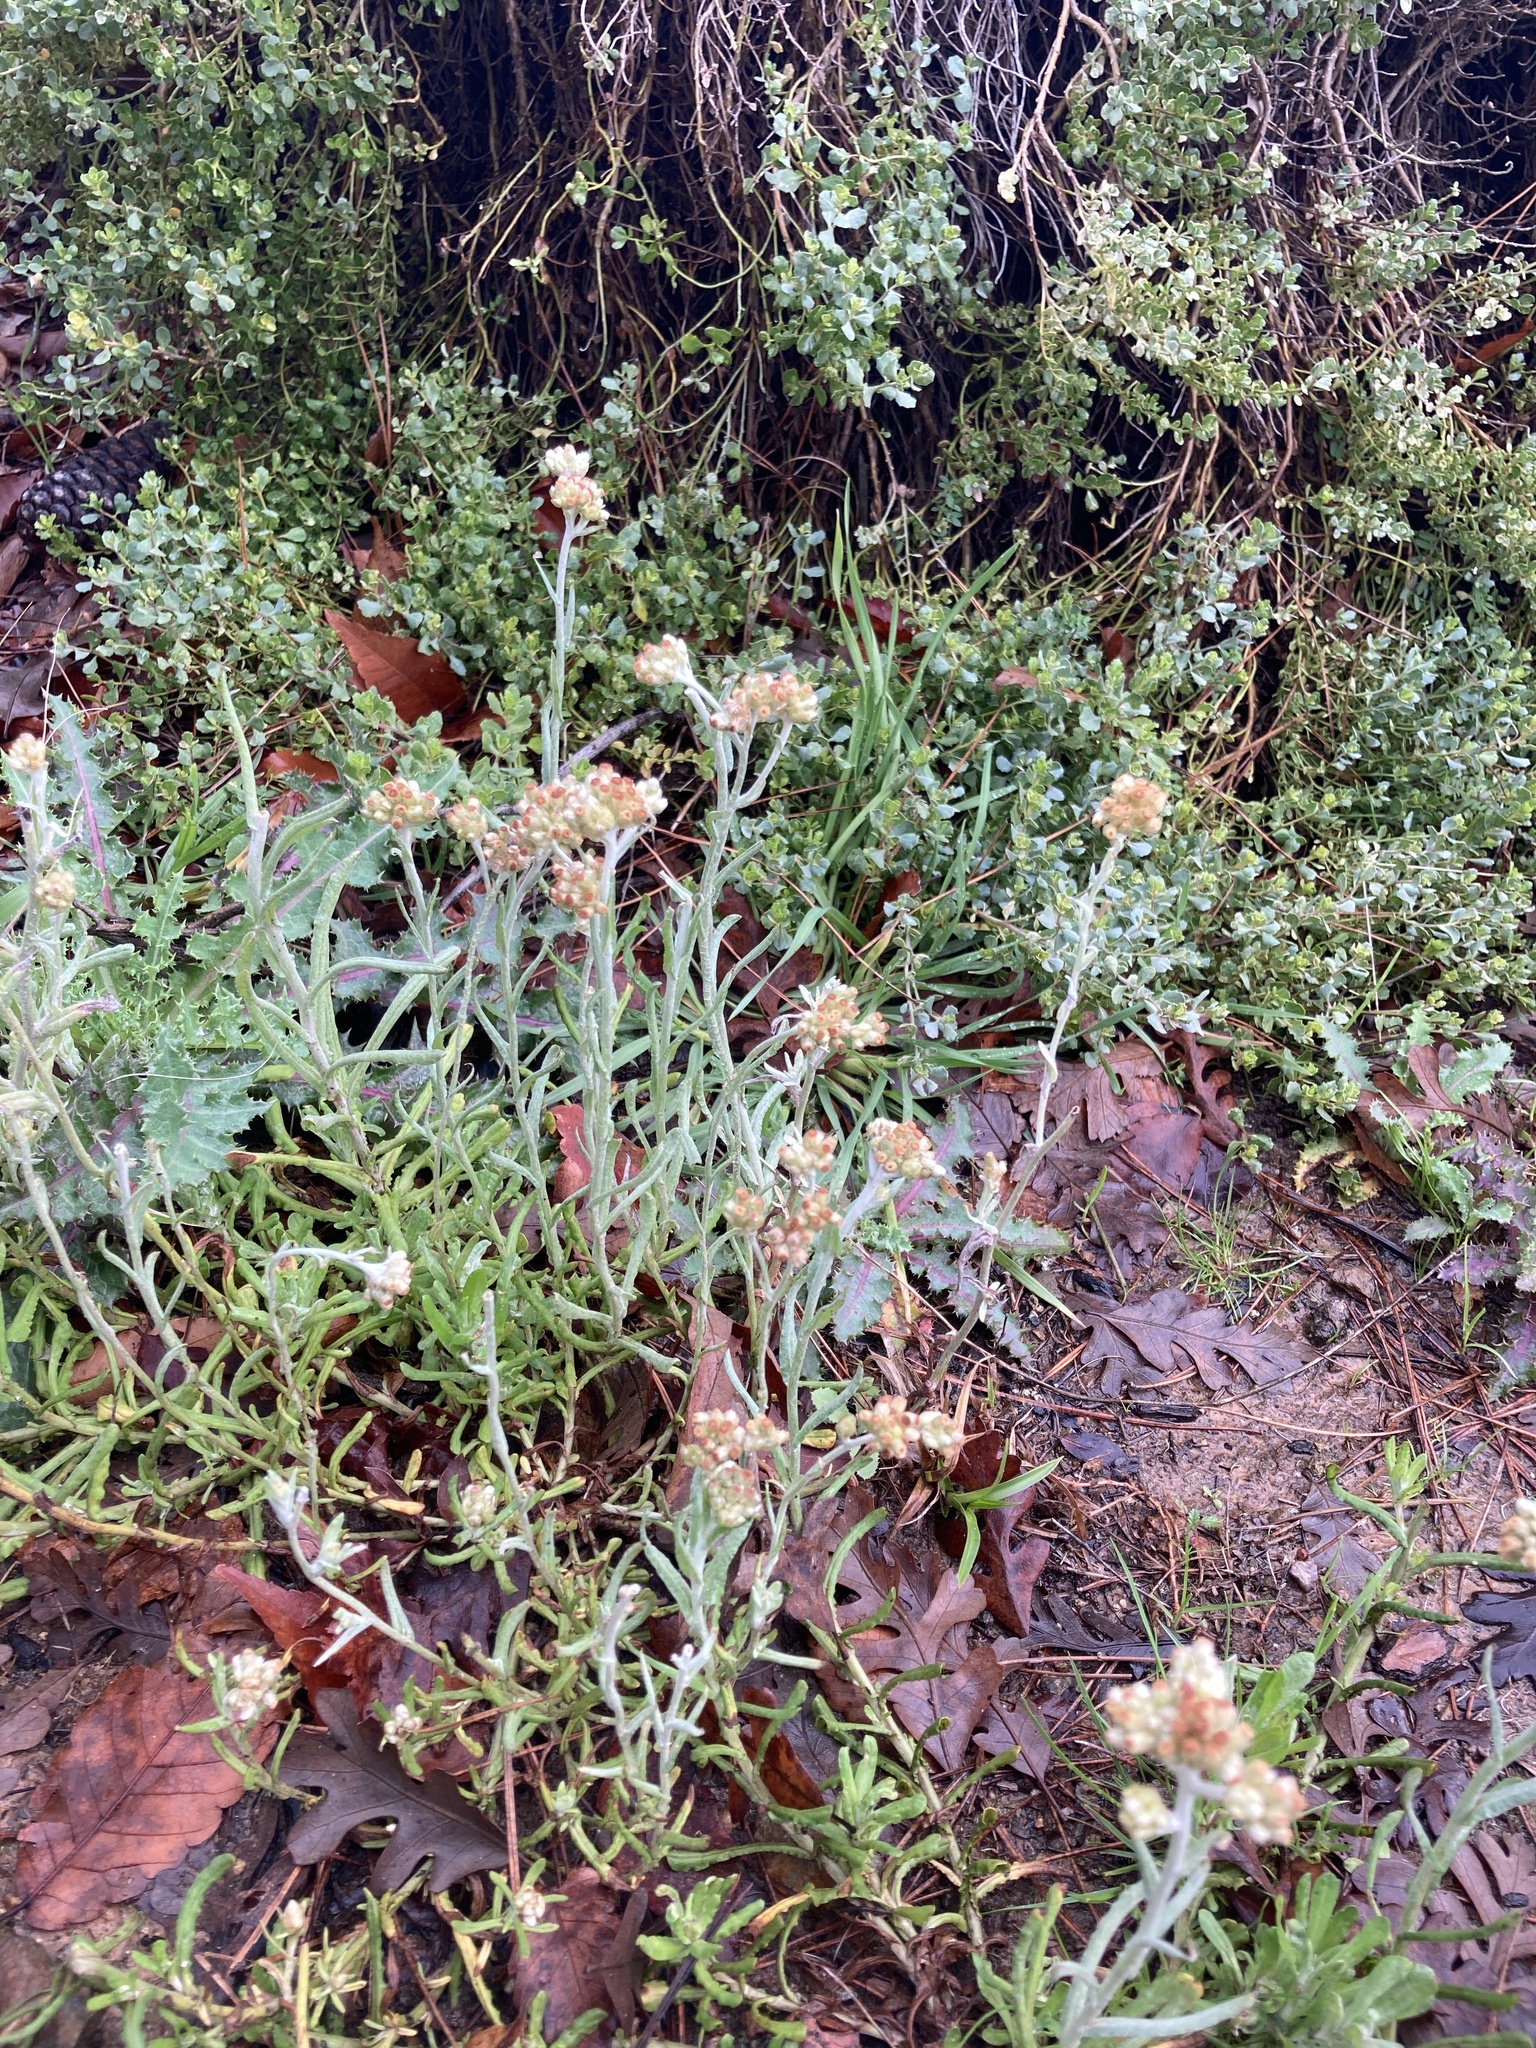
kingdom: Plantae
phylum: Tracheophyta
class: Magnoliopsida
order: Asterales
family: Asteraceae
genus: Helichrysum
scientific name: Helichrysum luteoalbum
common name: Daisy
